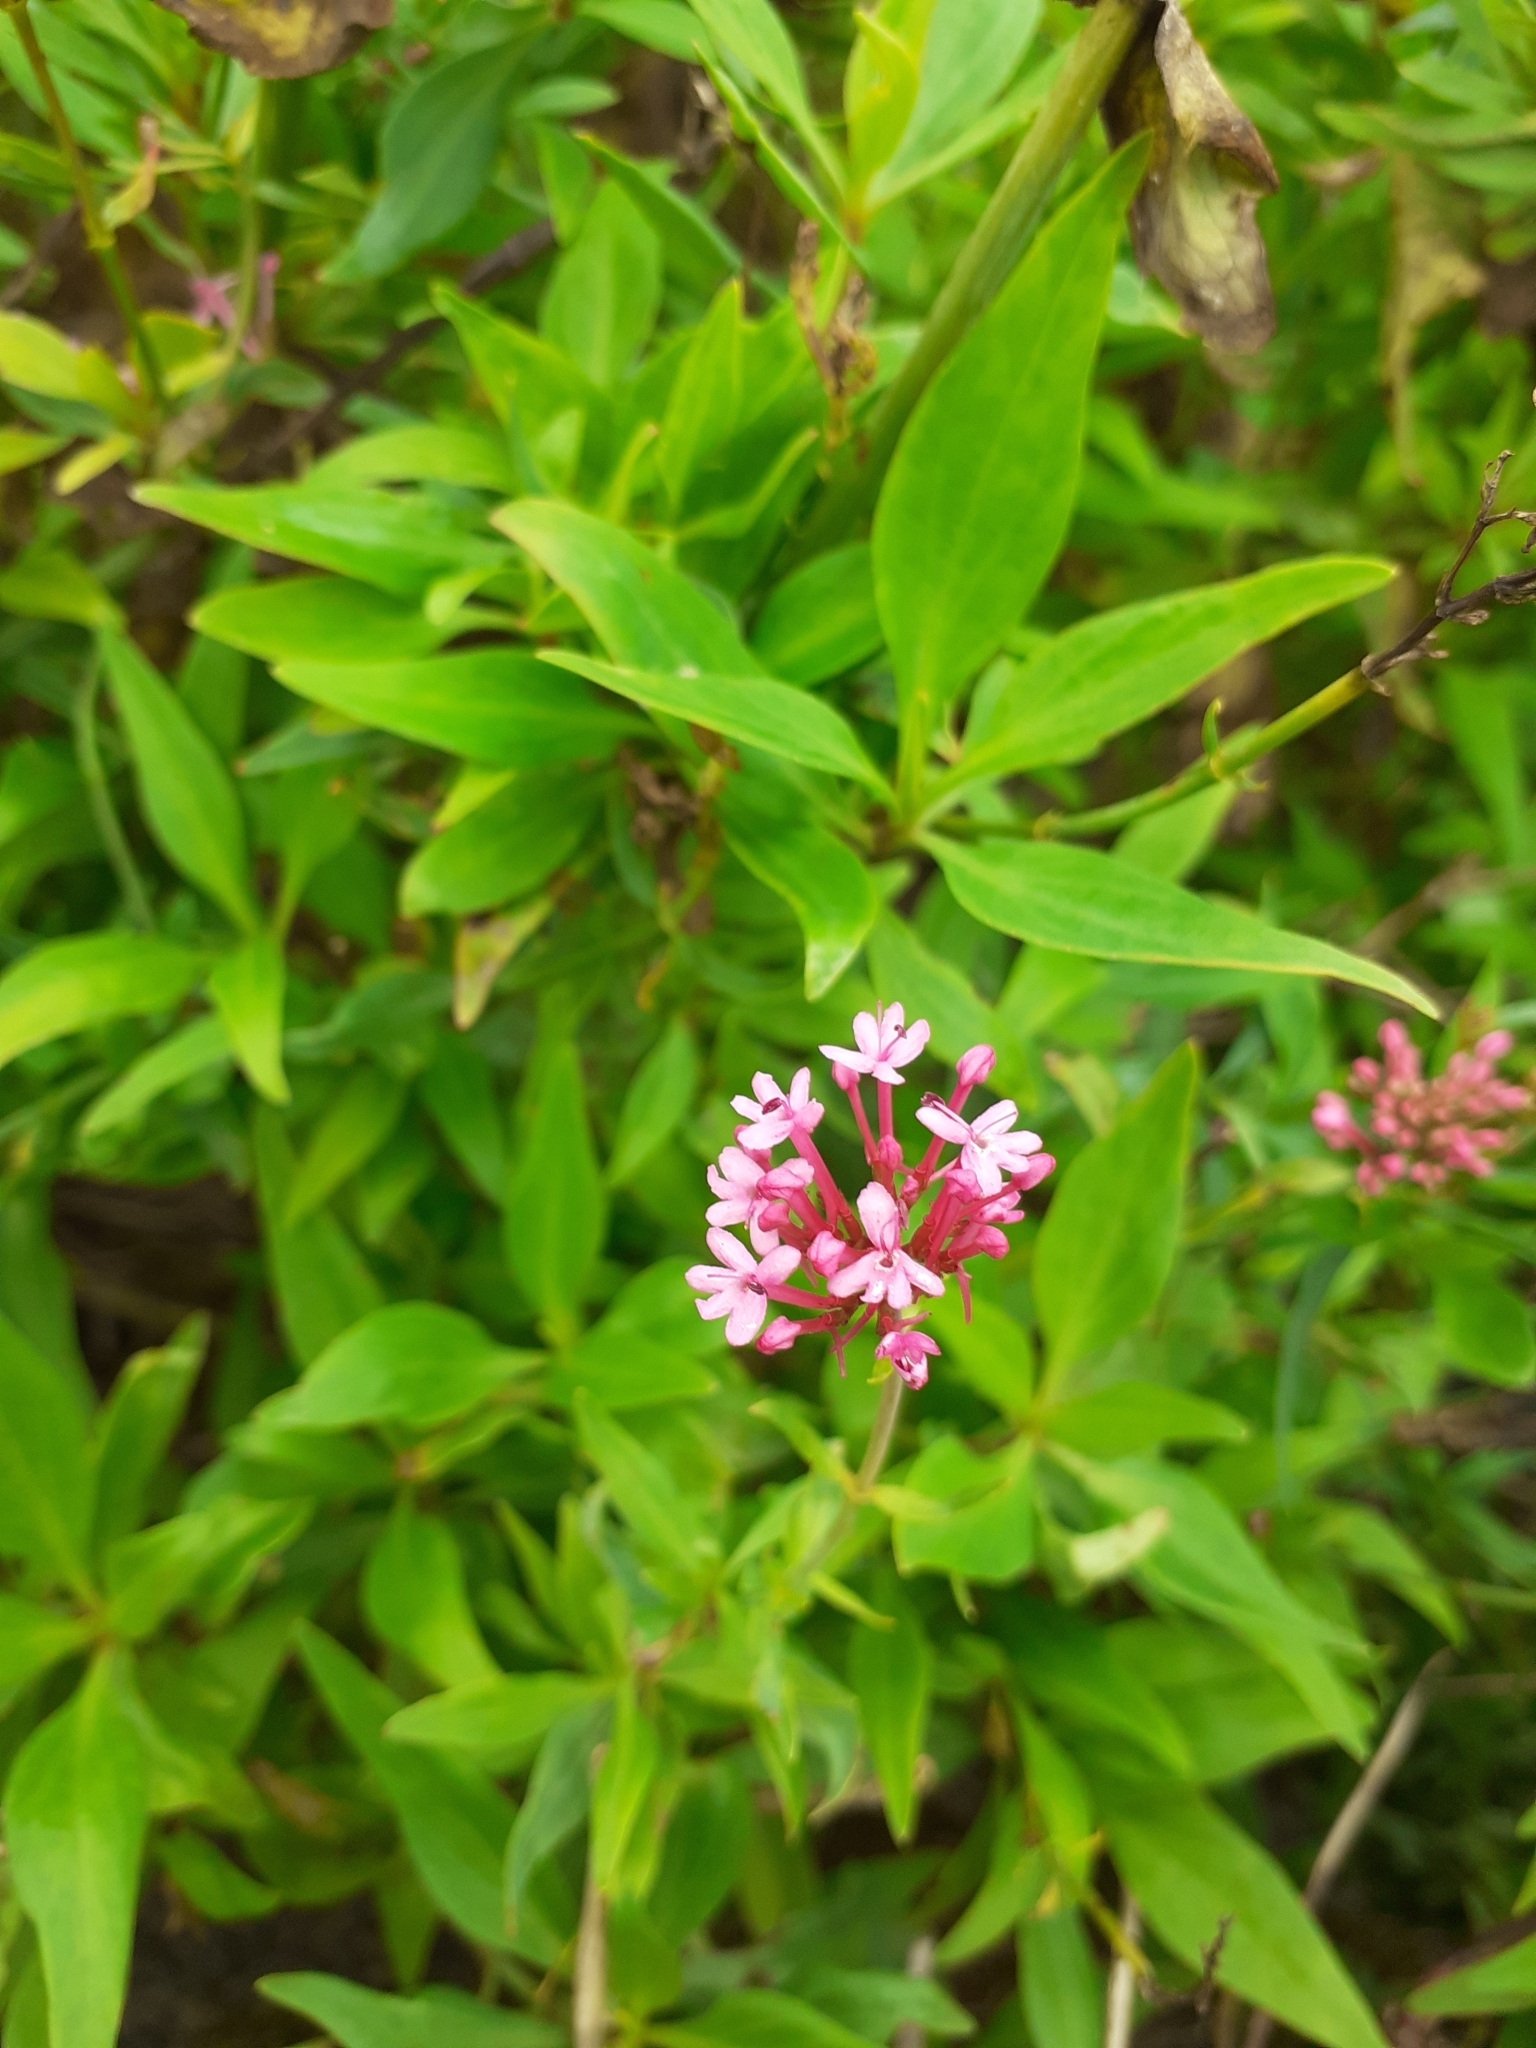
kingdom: Plantae
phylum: Tracheophyta
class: Magnoliopsida
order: Dipsacales
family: Caprifoliaceae
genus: Centranthus
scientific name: Centranthus ruber
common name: Red valerian
